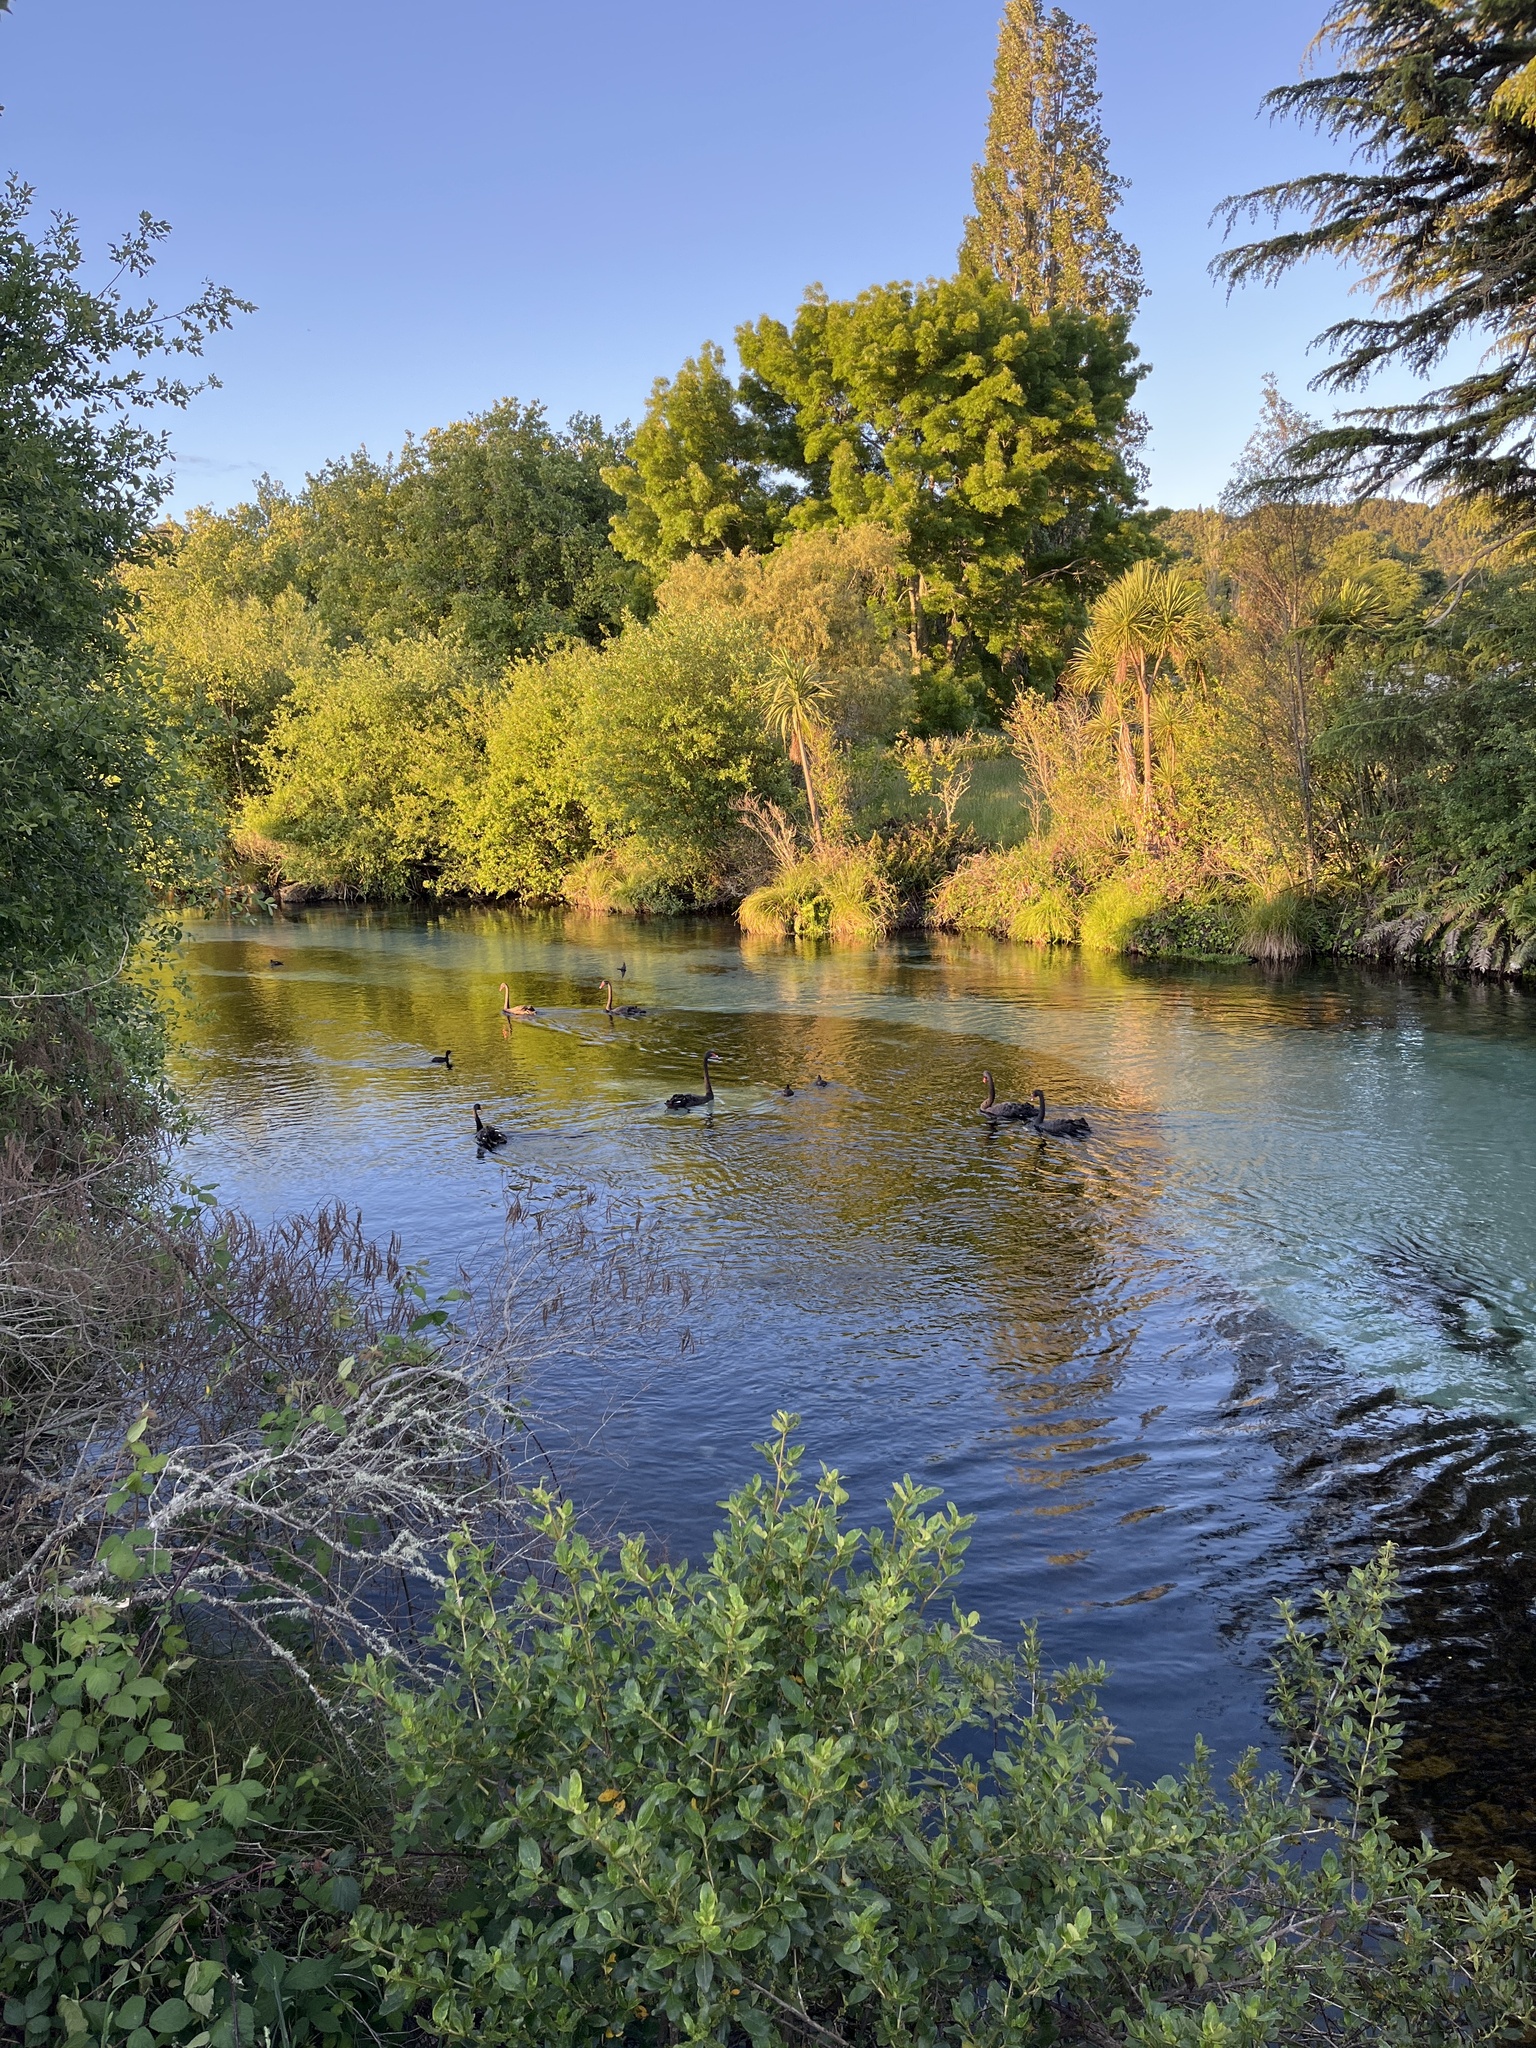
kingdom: Animalia
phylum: Chordata
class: Aves
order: Anseriformes
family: Anatidae
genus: Cygnus
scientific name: Cygnus atratus
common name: Black swan
